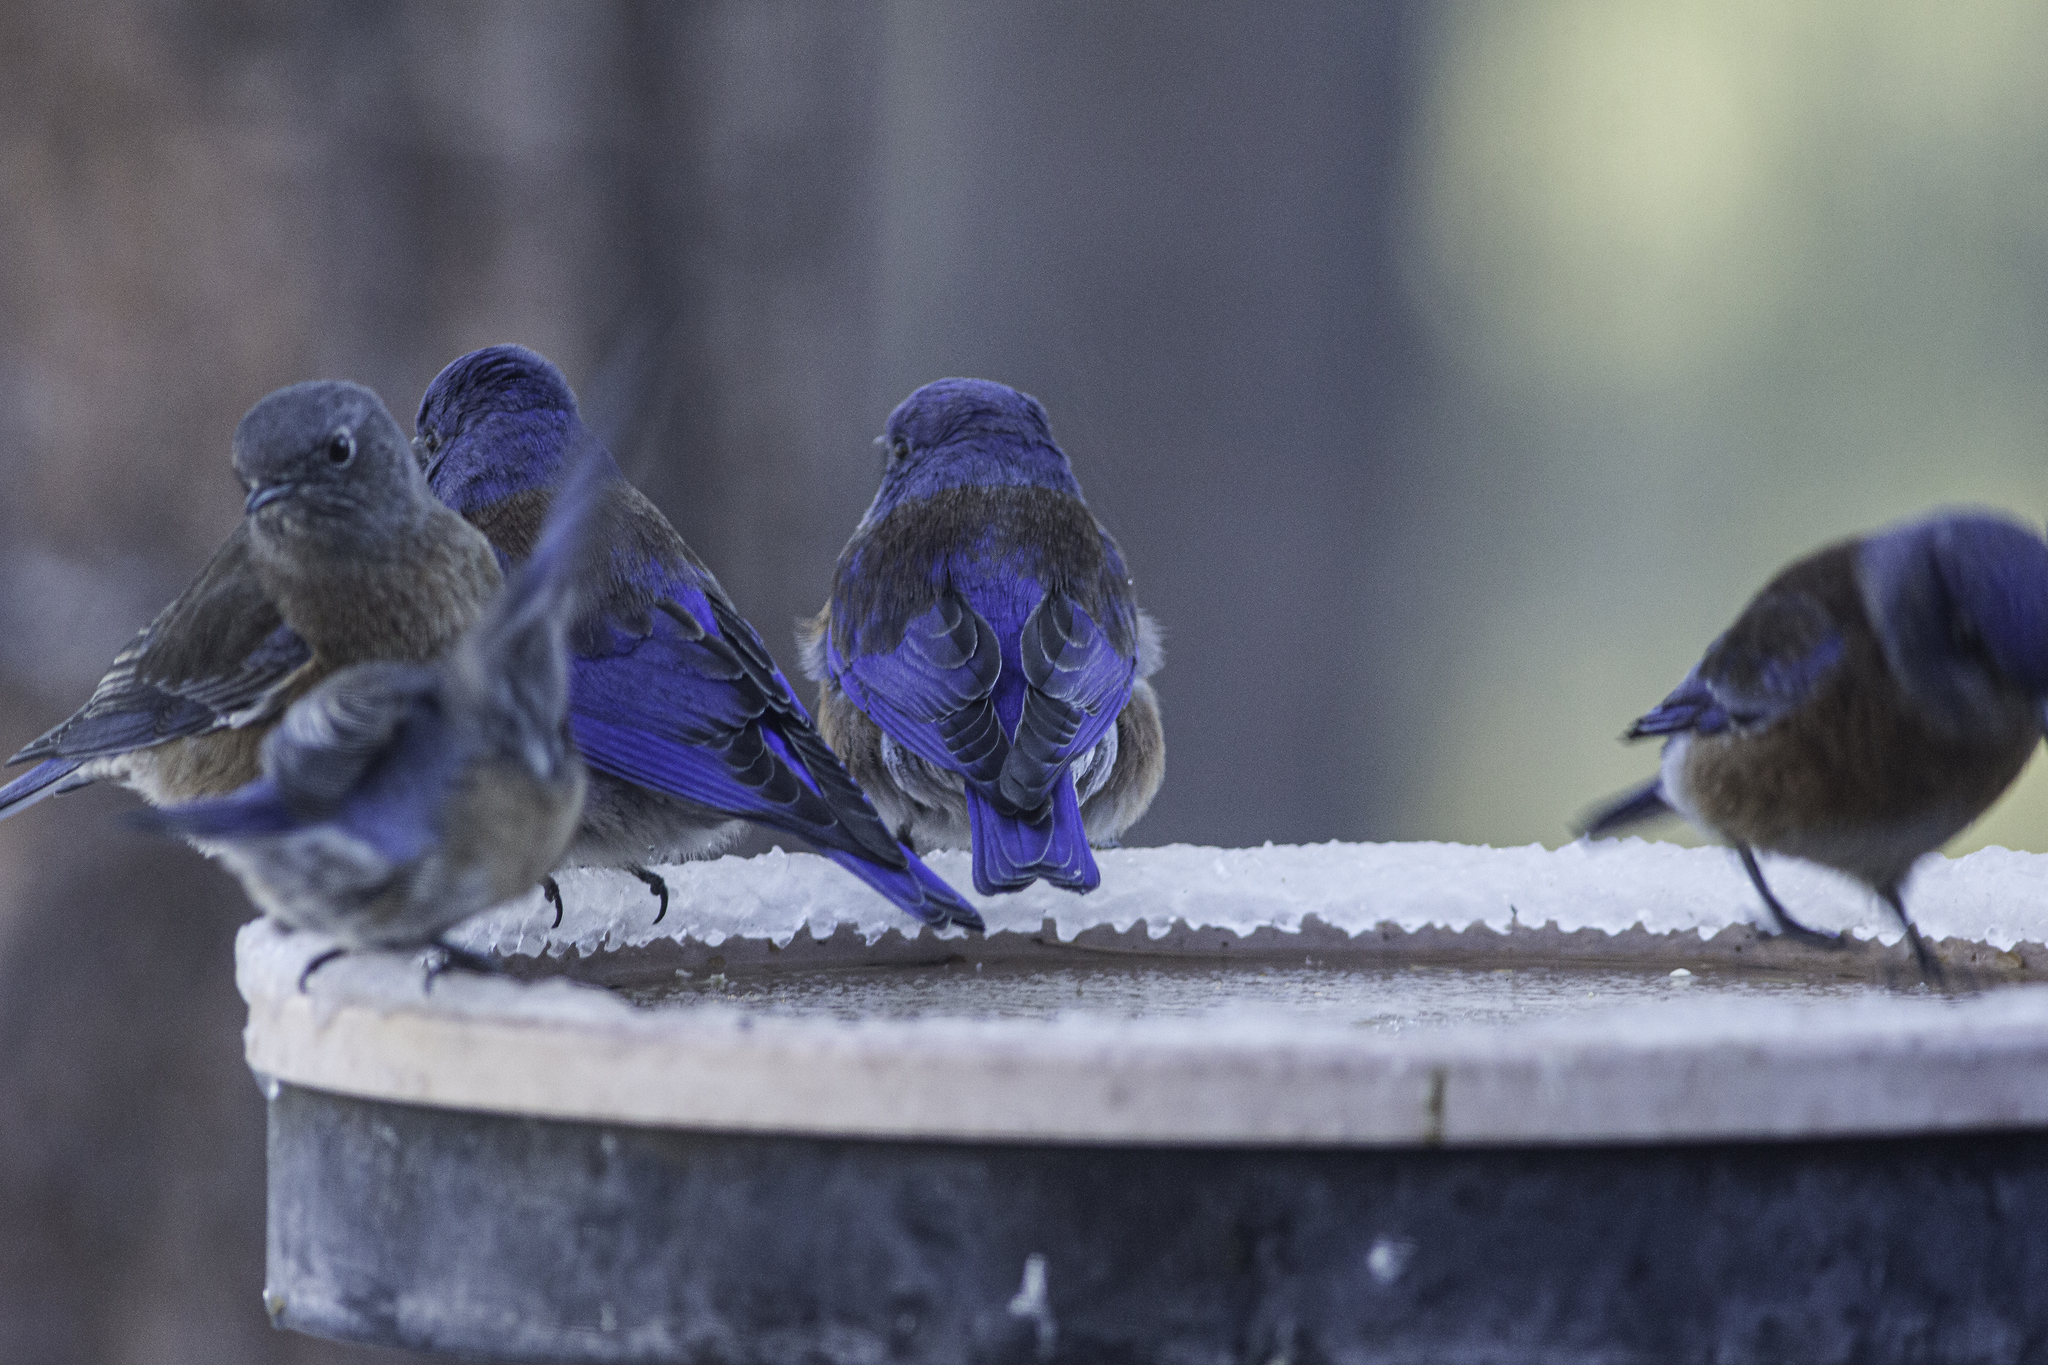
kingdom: Animalia
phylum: Chordata
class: Aves
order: Passeriformes
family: Turdidae
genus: Sialia
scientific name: Sialia mexicana
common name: Western bluebird
